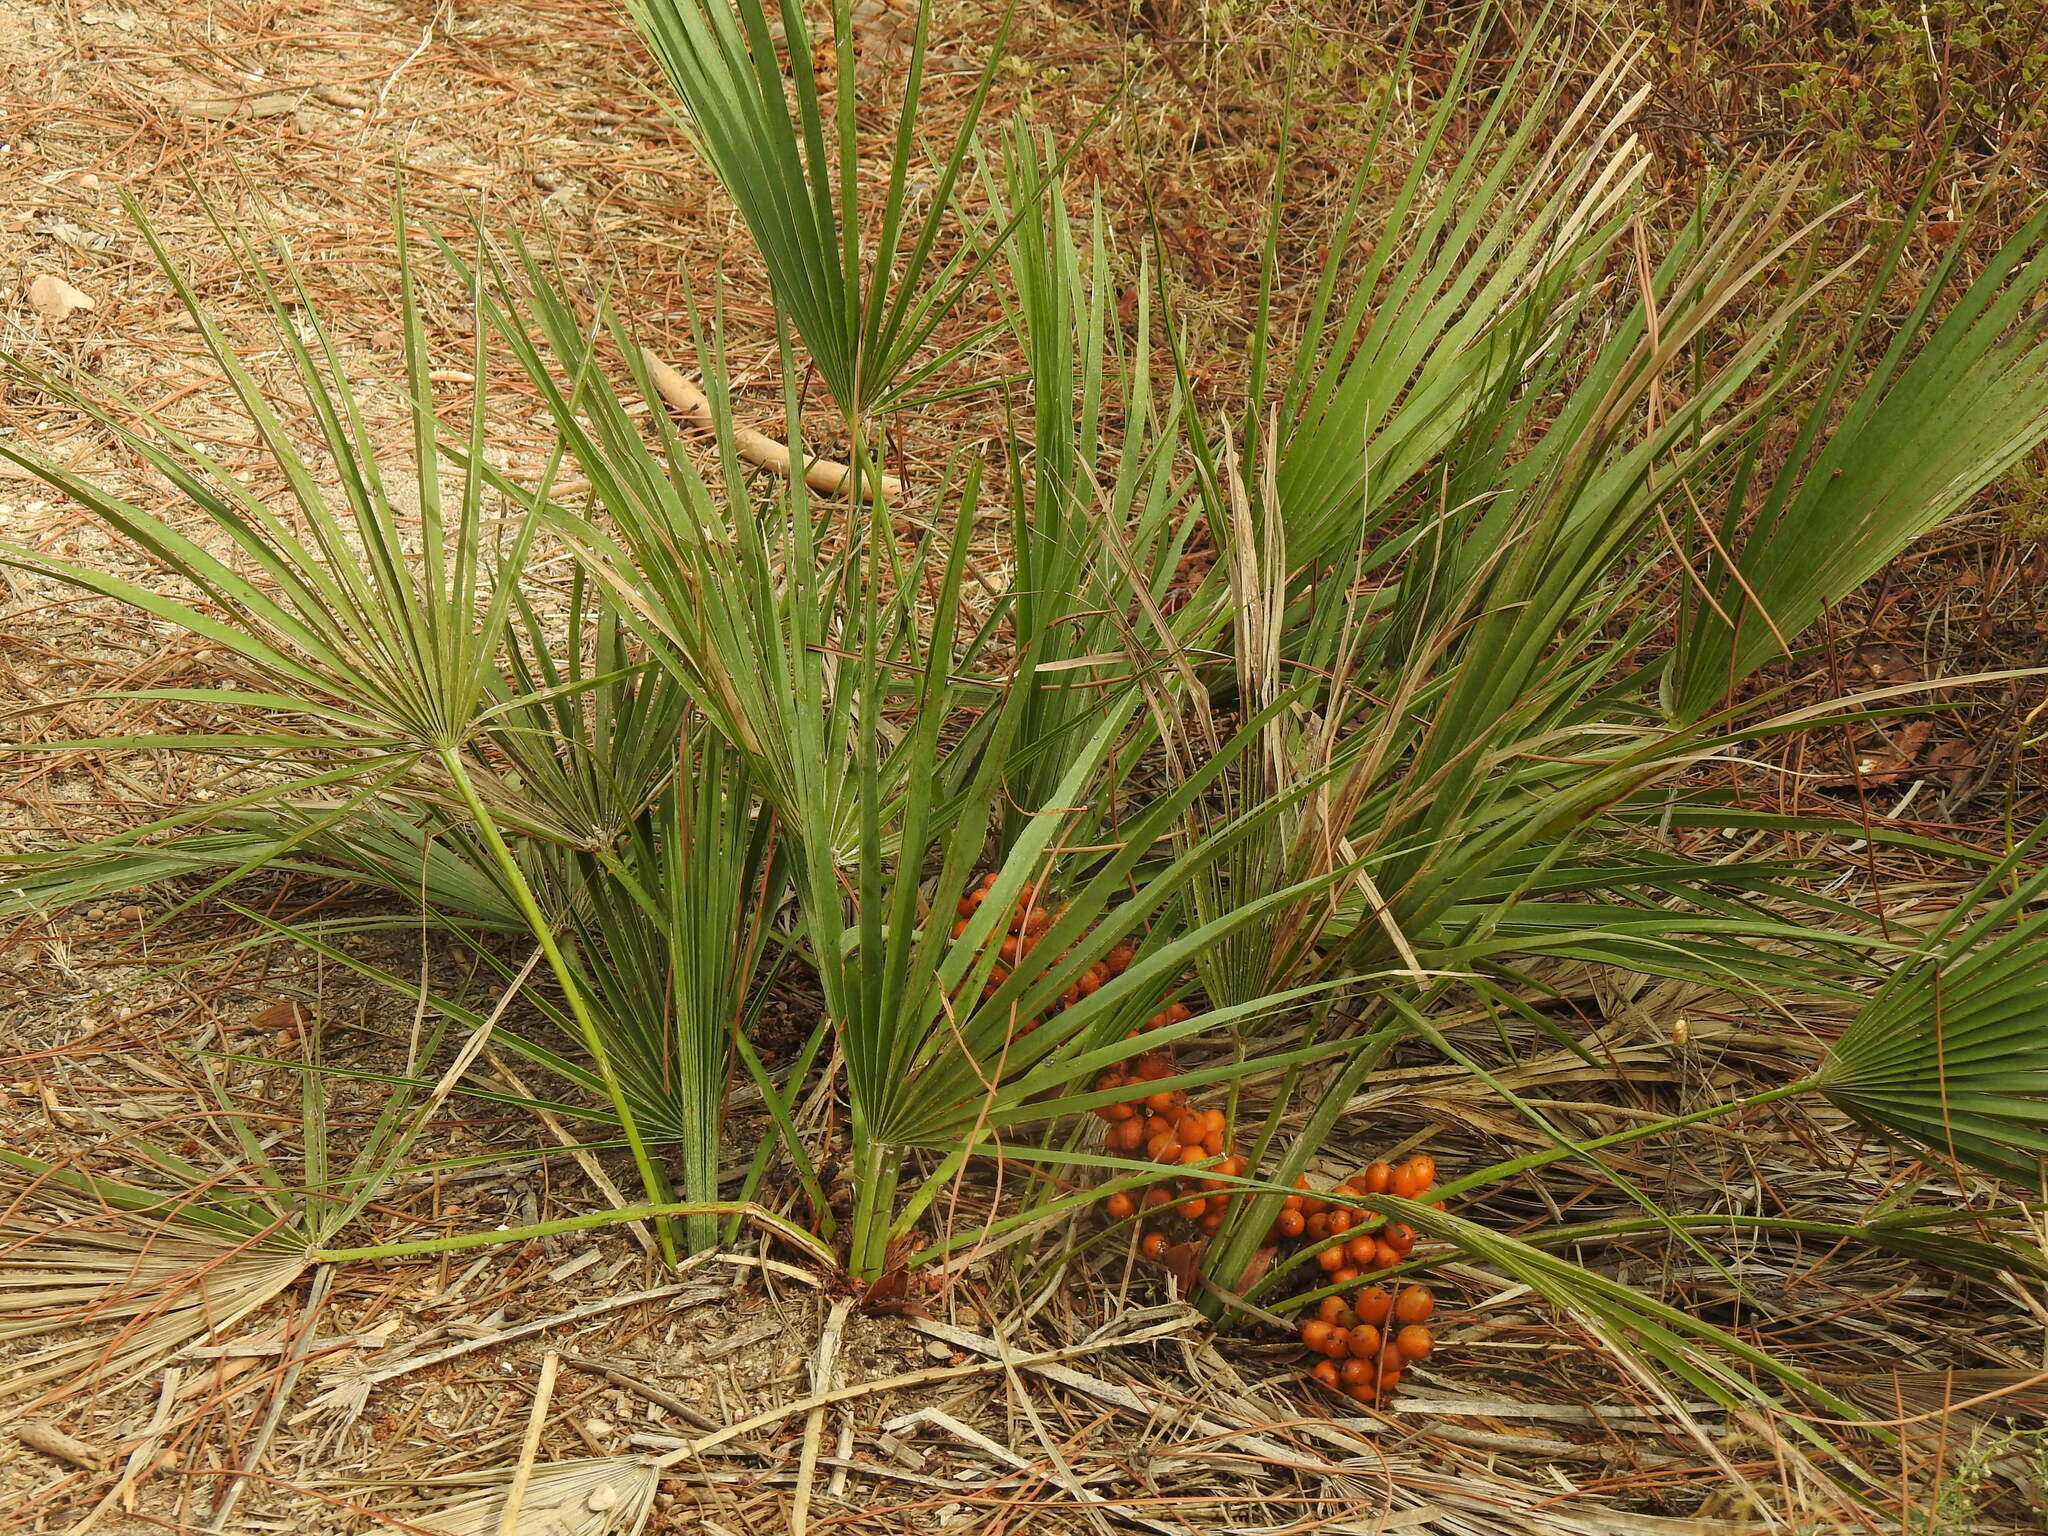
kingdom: Plantae
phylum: Tracheophyta
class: Liliopsida
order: Arecales
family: Arecaceae
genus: Chamaerops
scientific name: Chamaerops humilis
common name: Dwarf fan palm
